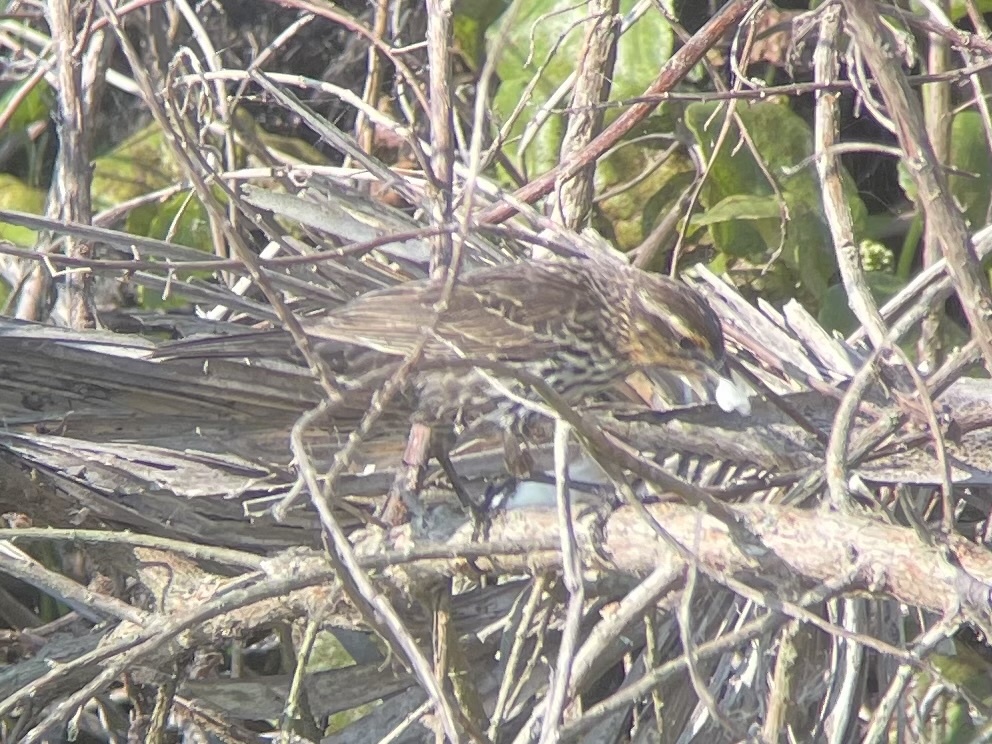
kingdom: Animalia
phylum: Chordata
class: Aves
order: Passeriformes
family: Icteridae
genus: Agelaius
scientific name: Agelaius phoeniceus
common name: Red-winged blackbird
